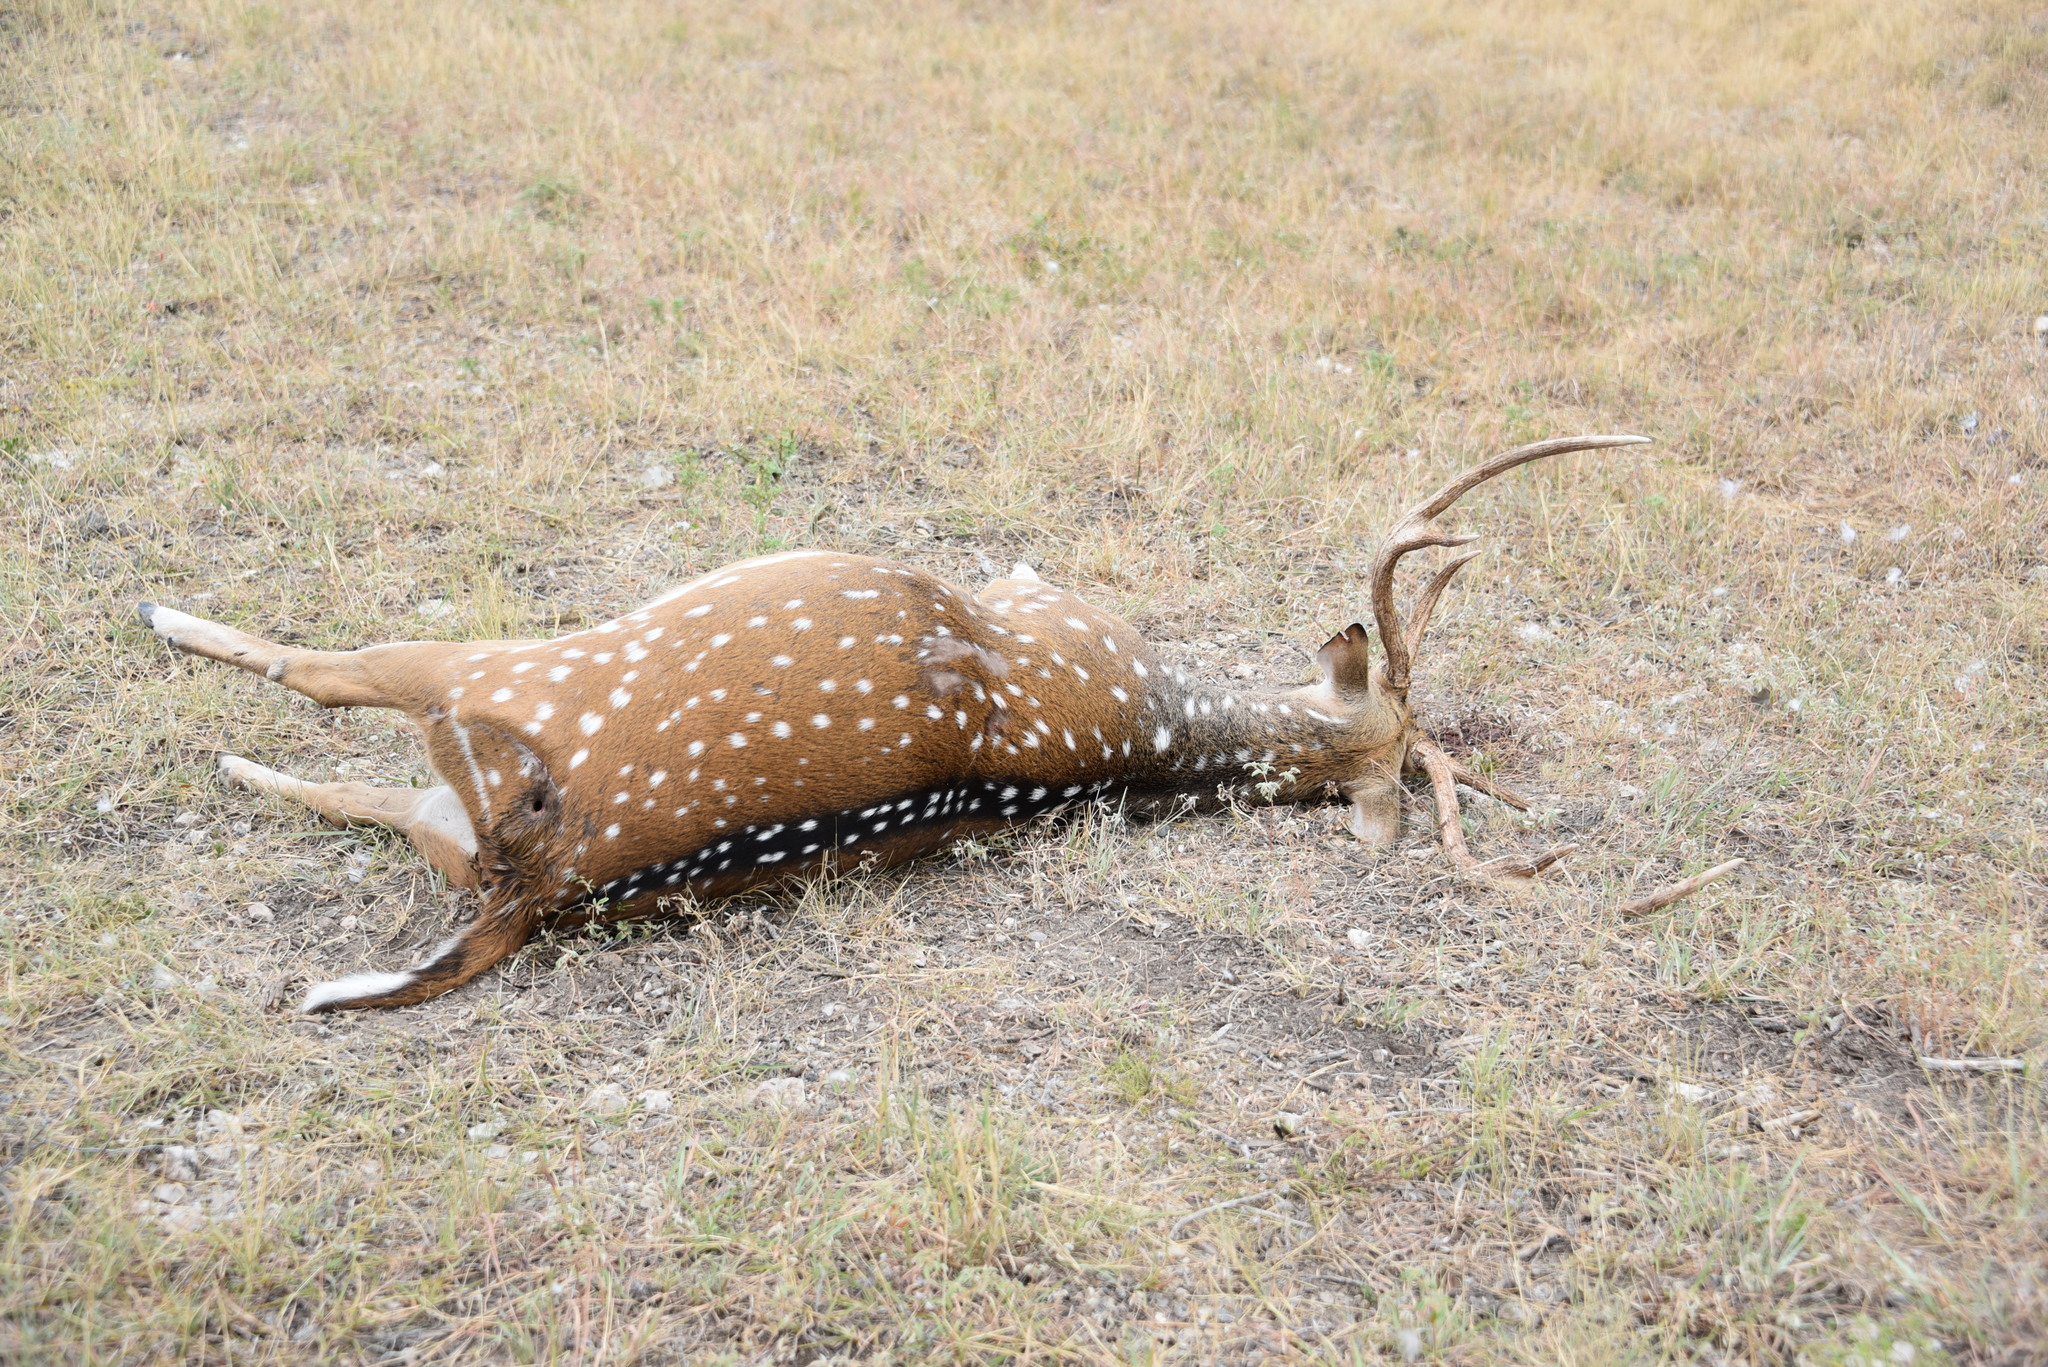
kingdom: Animalia
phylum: Chordata
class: Mammalia
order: Artiodactyla
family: Cervidae
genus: Axis
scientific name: Axis axis
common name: Chital
